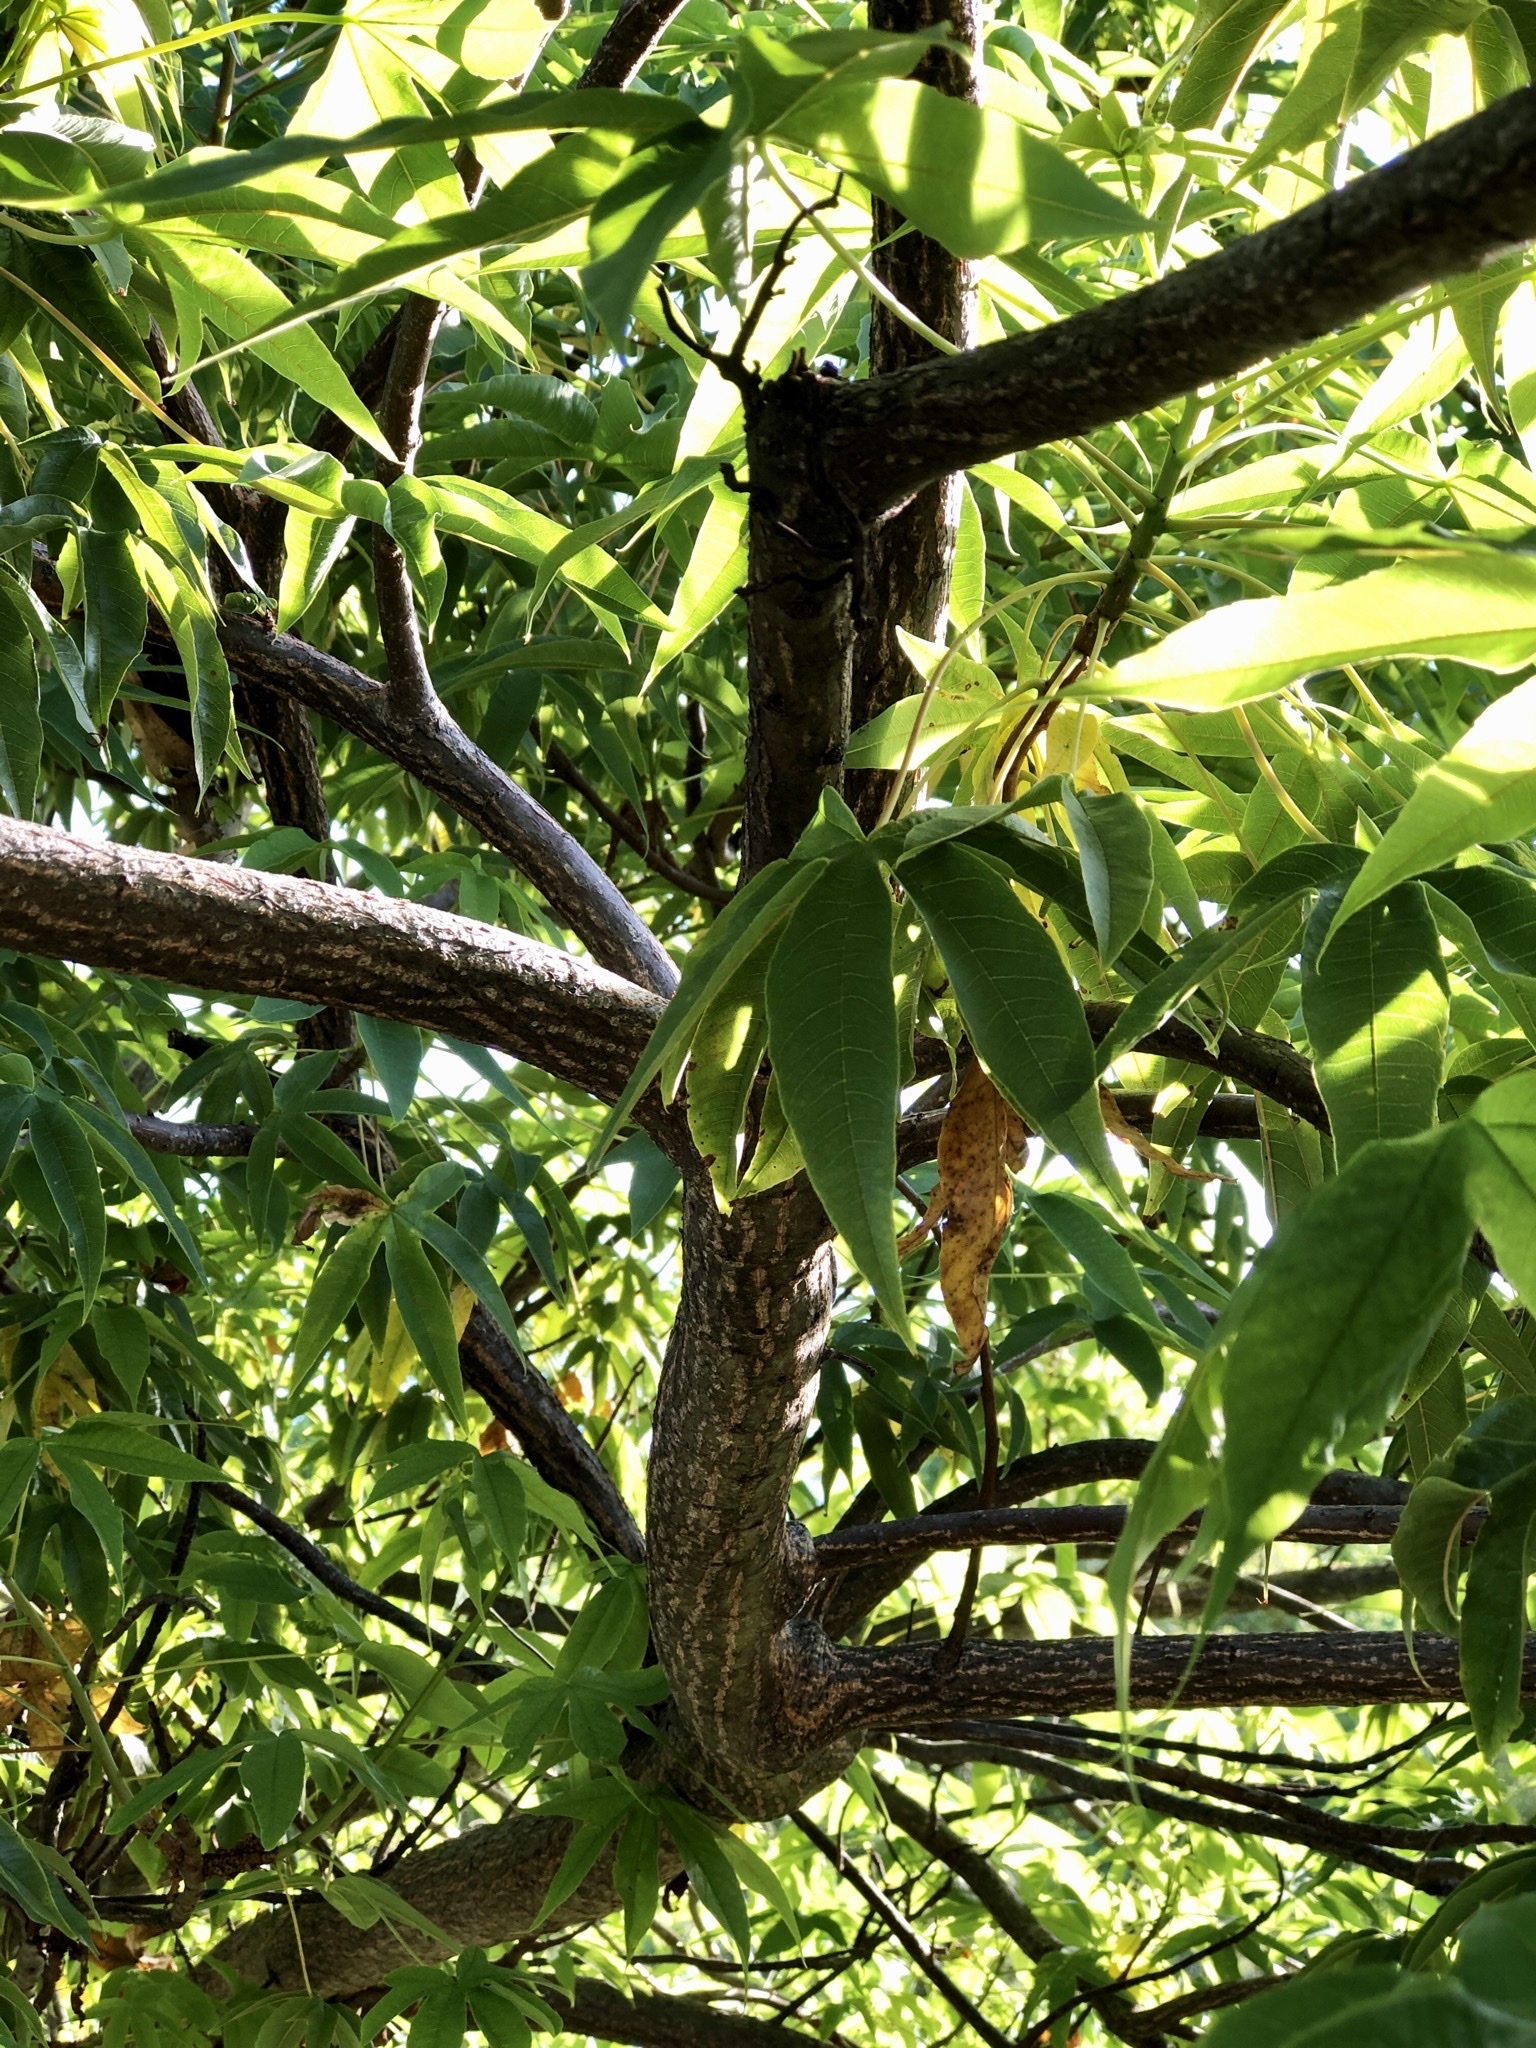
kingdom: Plantae
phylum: Tracheophyta
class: Magnoliopsida
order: Malvales
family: Cochlospermaceae
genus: Cochlospermum
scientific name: Cochlospermum gillivraei
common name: Cottontree
